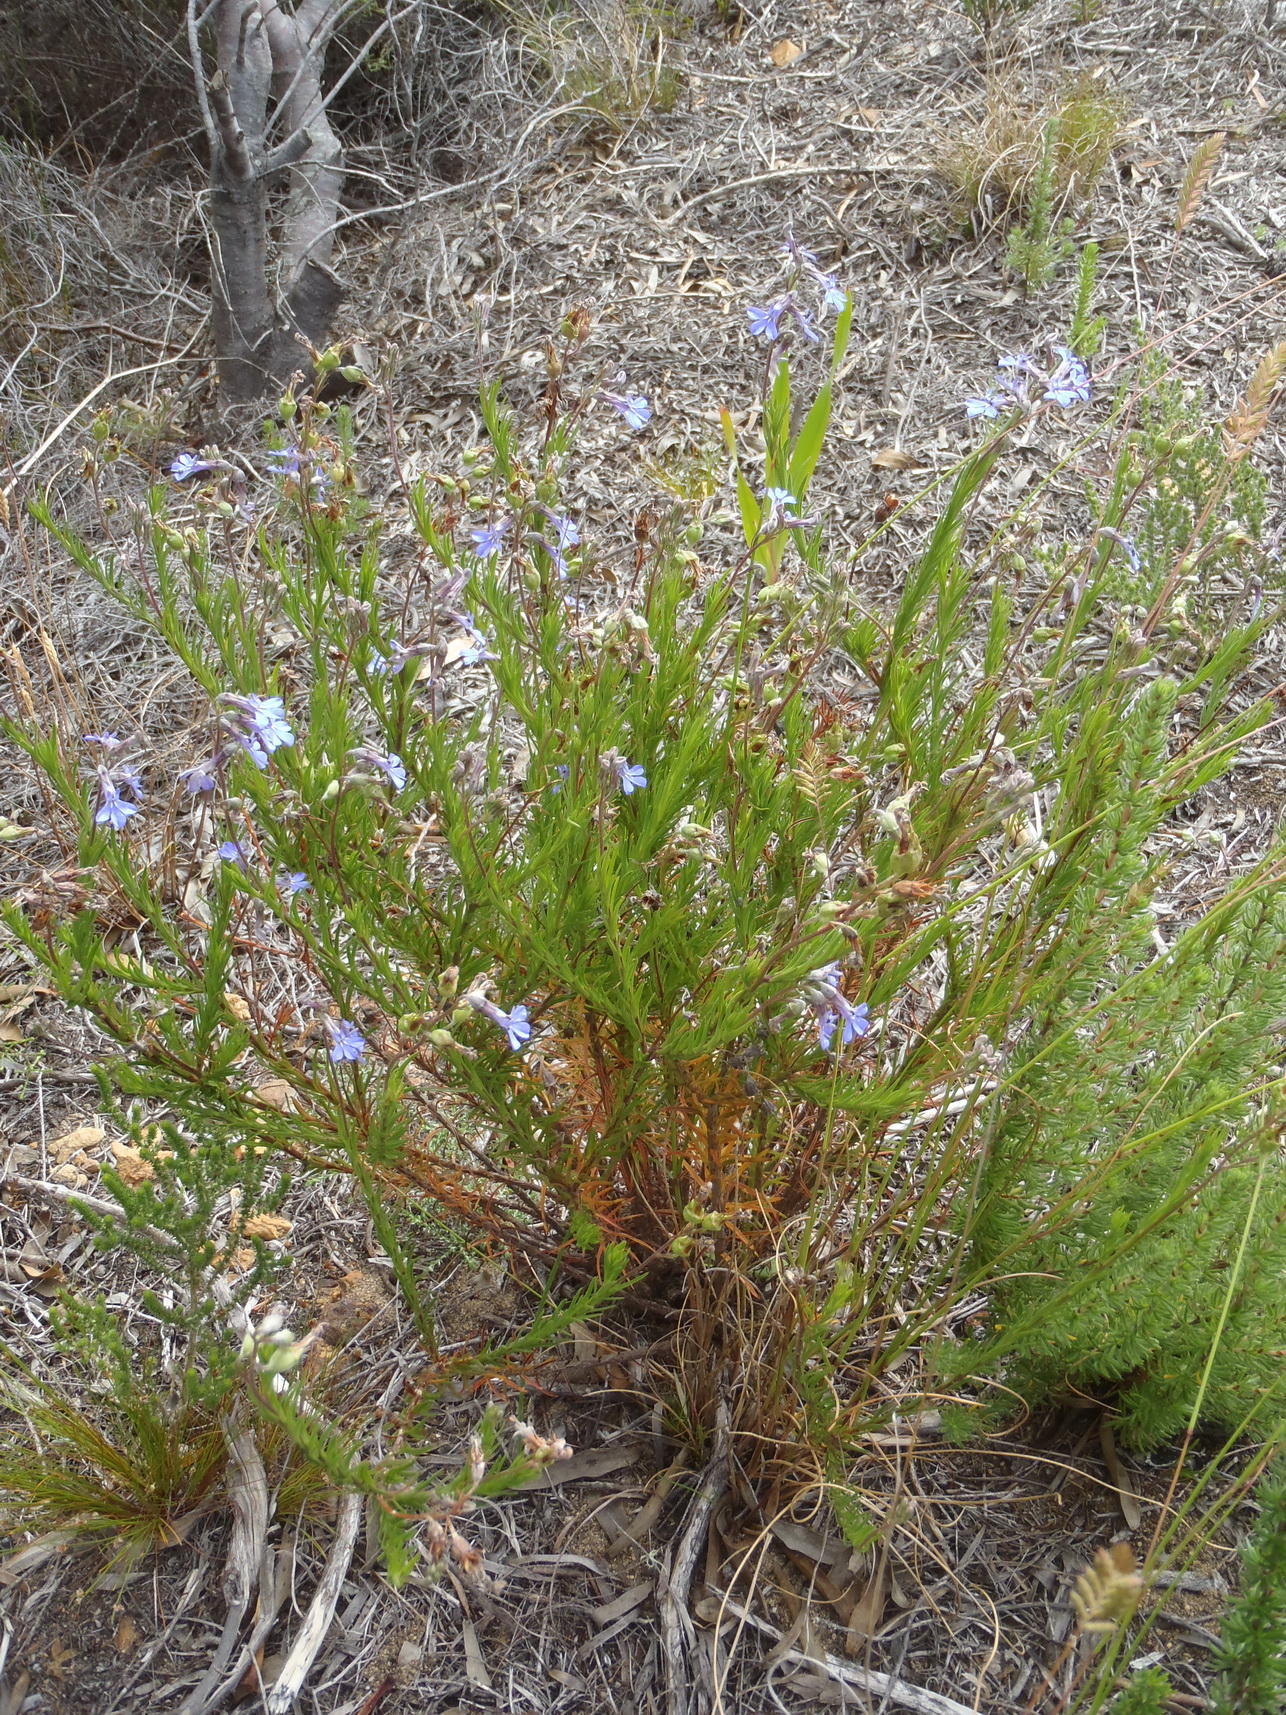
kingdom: Plantae
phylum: Tracheophyta
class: Magnoliopsida
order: Asterales
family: Campanulaceae
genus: Lobelia
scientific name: Lobelia pinifolia
